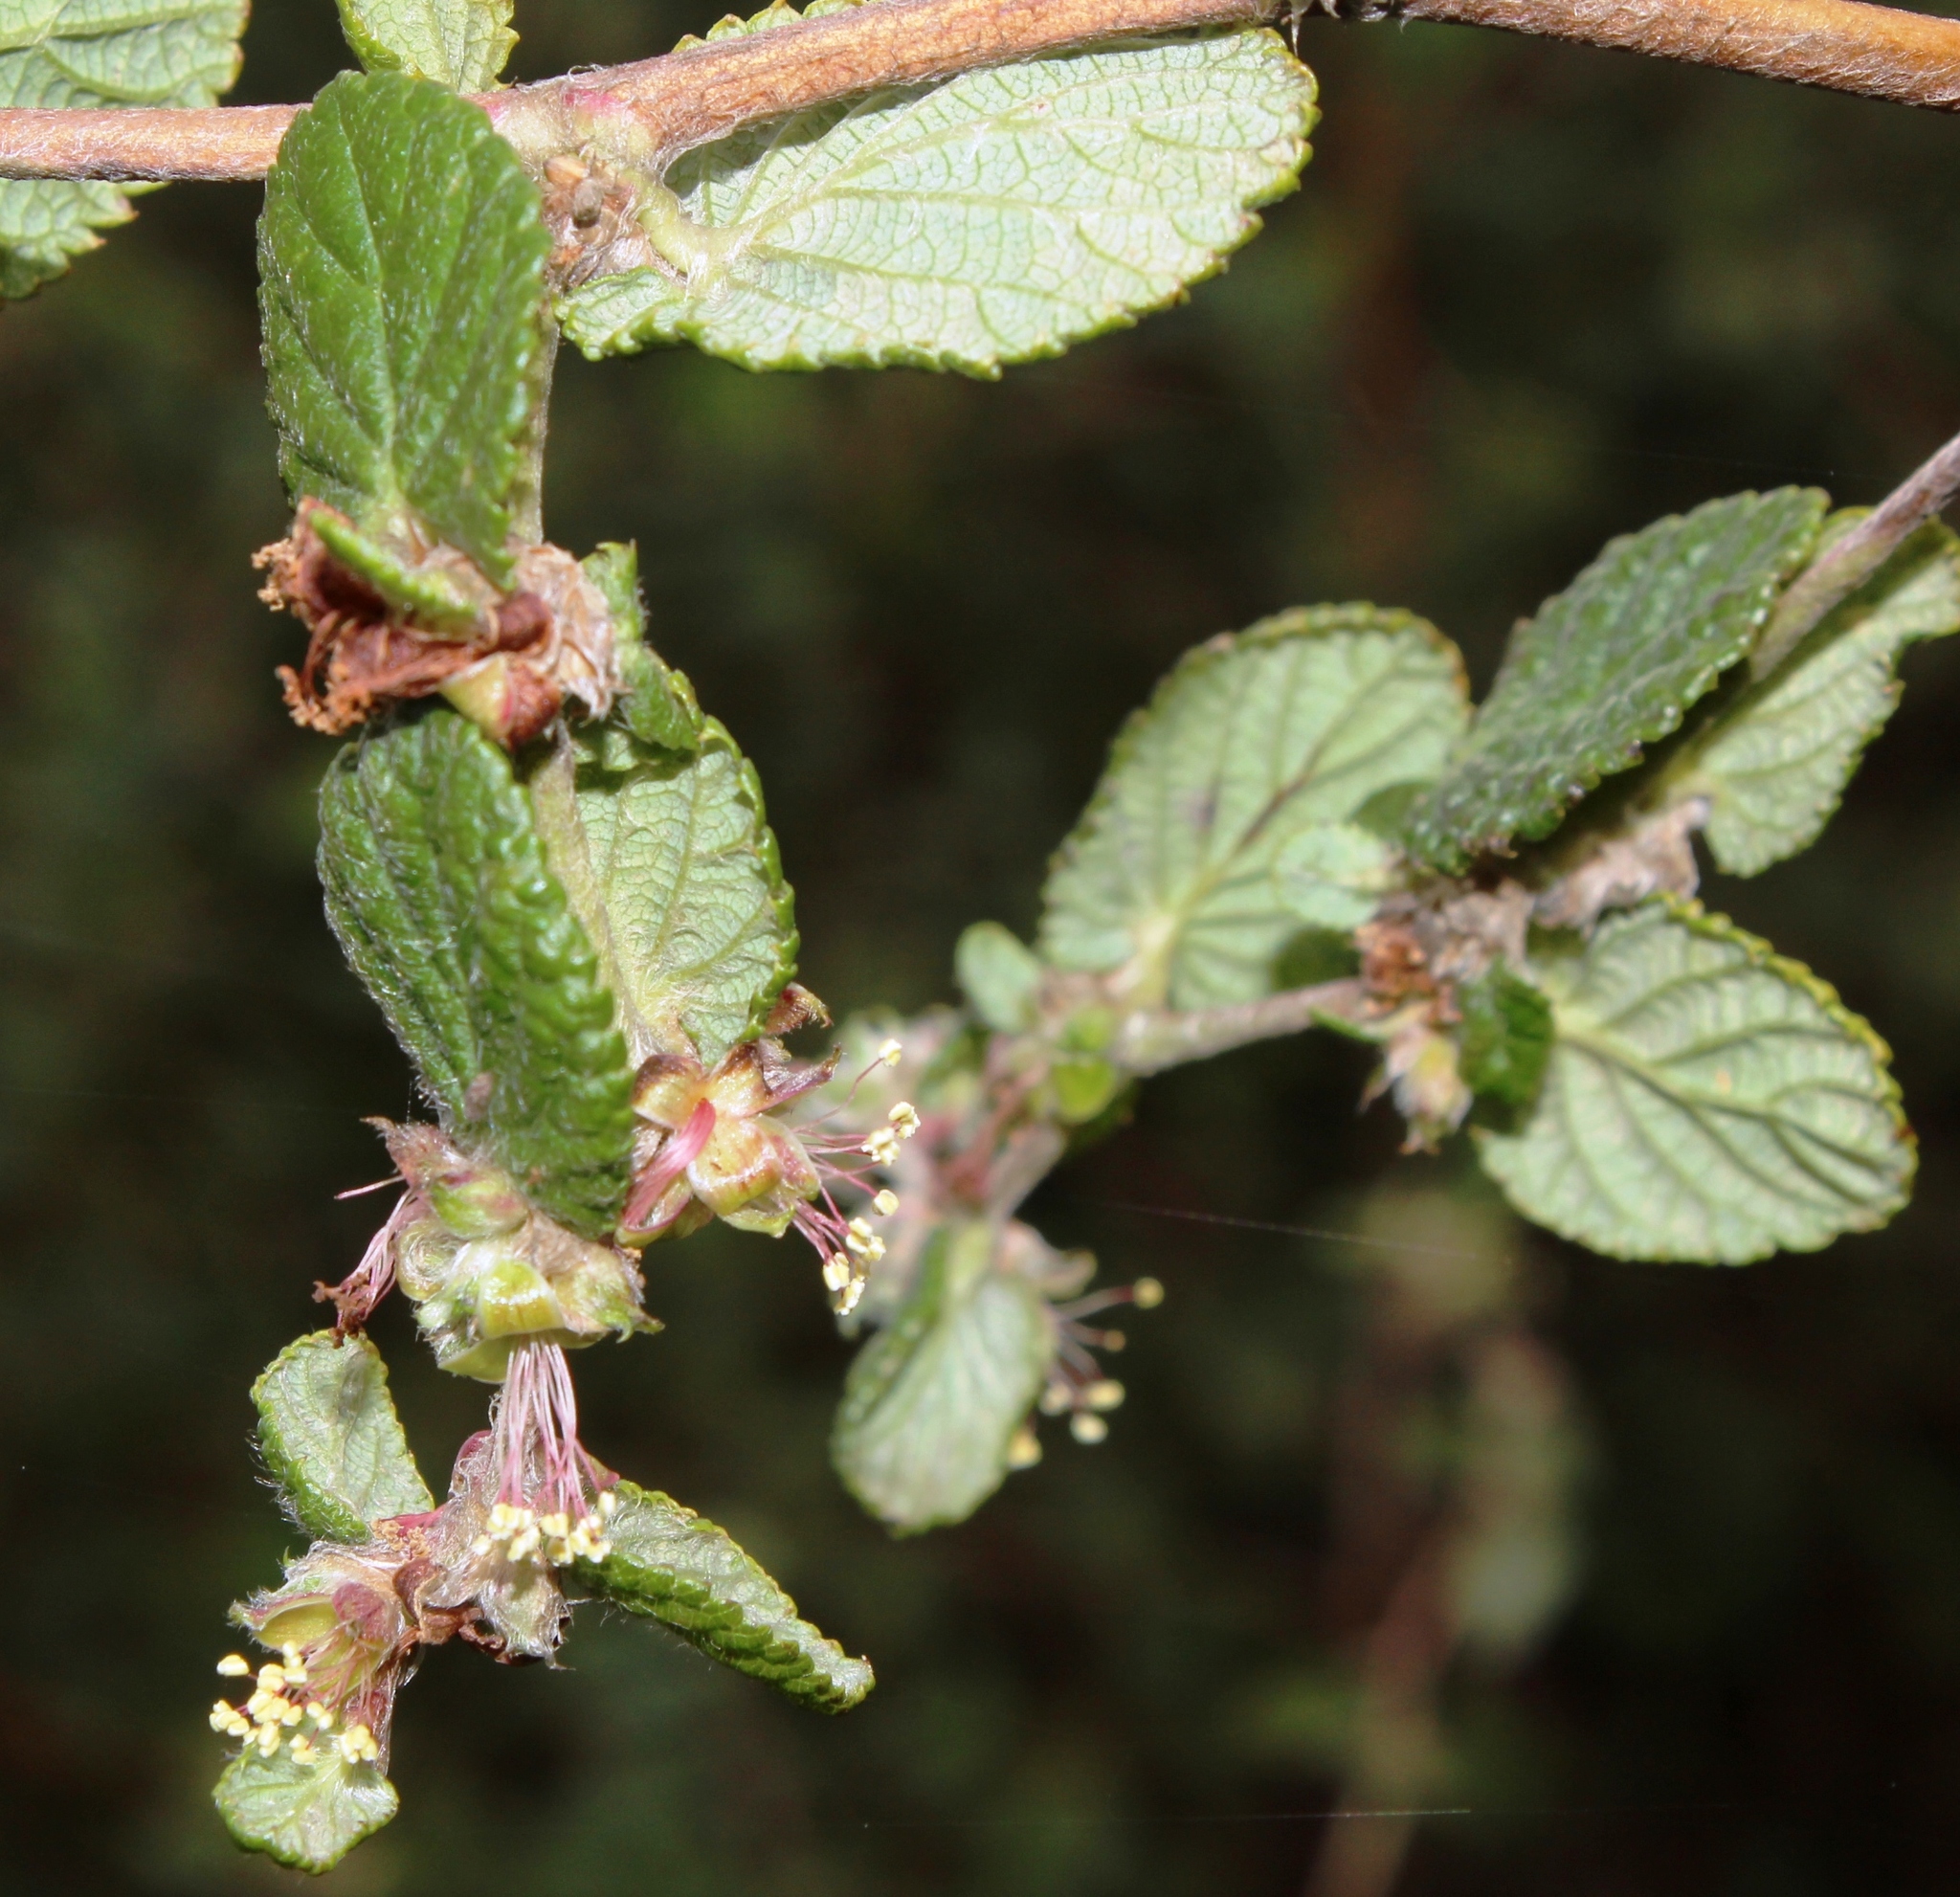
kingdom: Plantae
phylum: Tracheophyta
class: Magnoliopsida
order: Rosales
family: Rosaceae
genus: Cliffortia
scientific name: Cliffortia odorata
